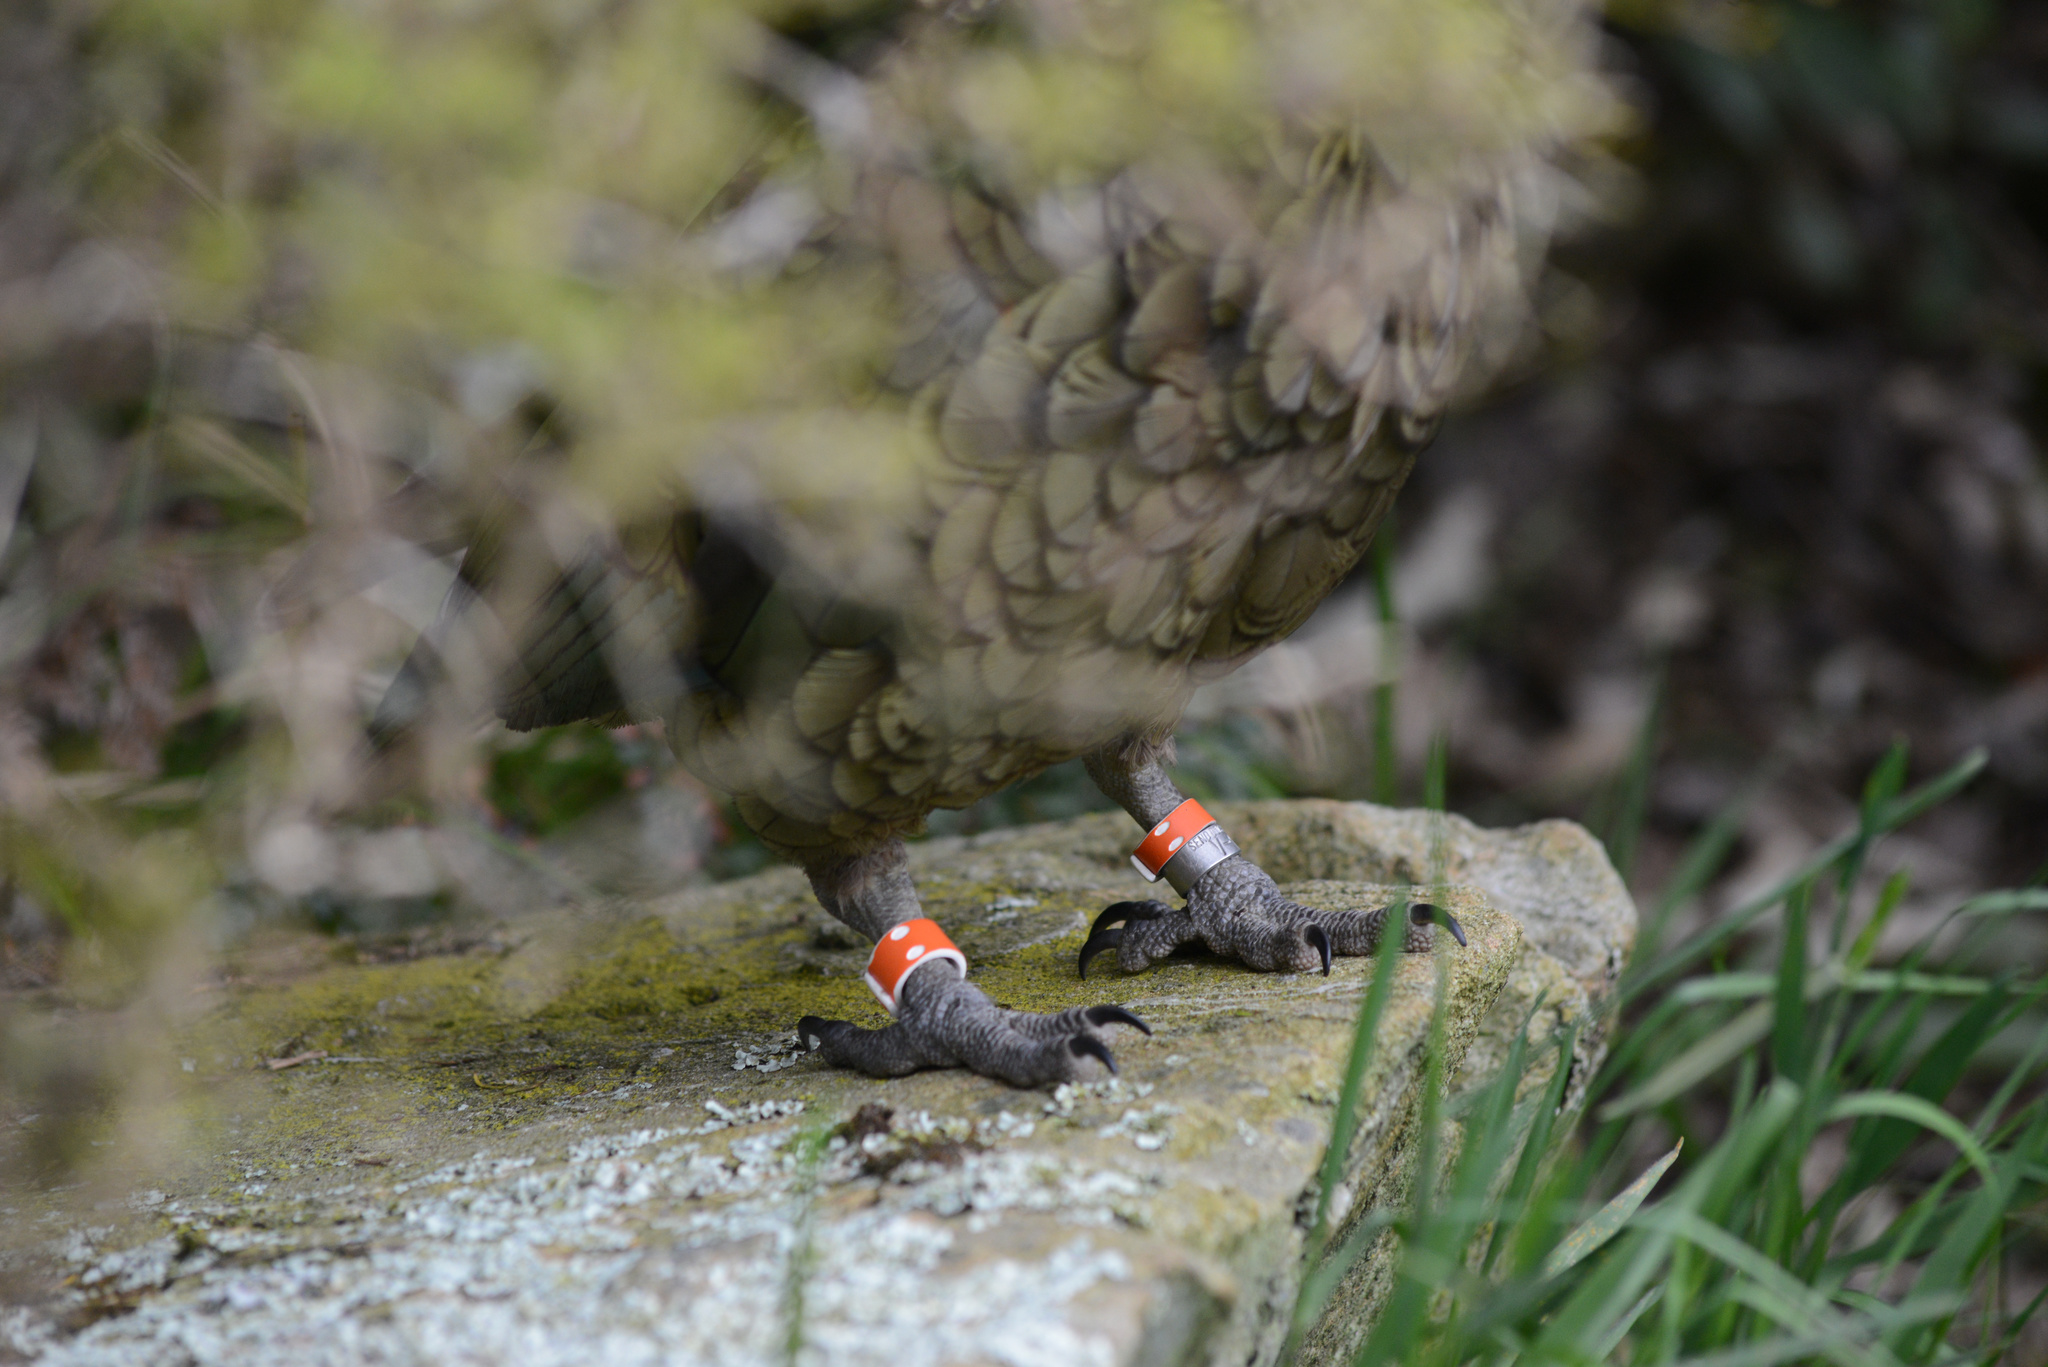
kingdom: Animalia
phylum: Chordata
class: Aves
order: Psittaciformes
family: Psittacidae
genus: Nestor
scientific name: Nestor notabilis
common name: Kea
